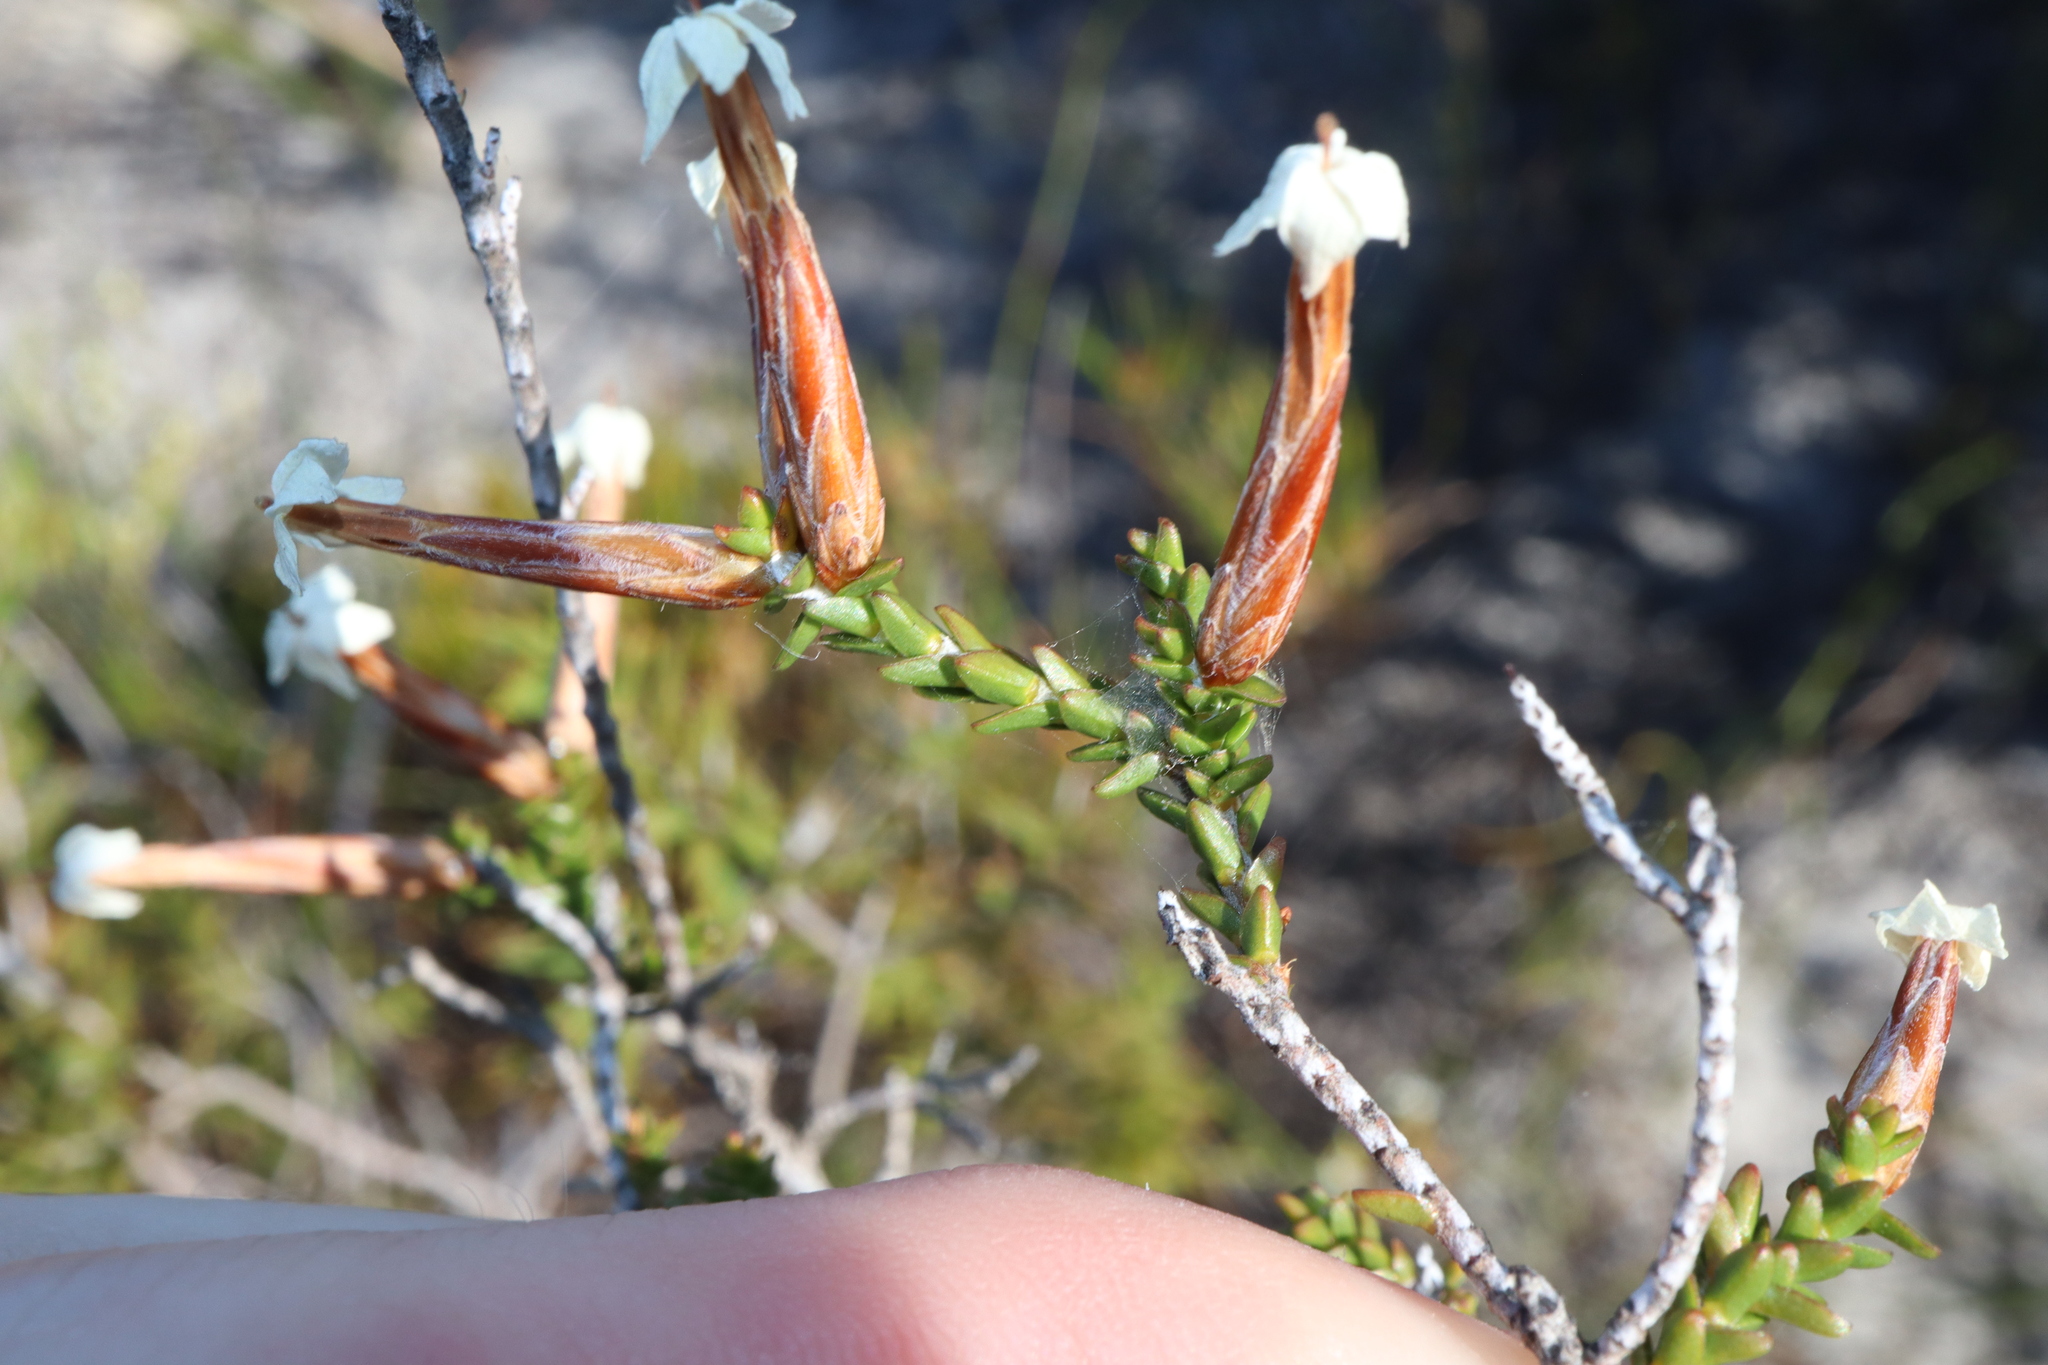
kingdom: Plantae
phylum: Tracheophyta
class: Magnoliopsida
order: Ericales
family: Ericaceae
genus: Lysinema
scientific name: Lysinema pentapetalum
